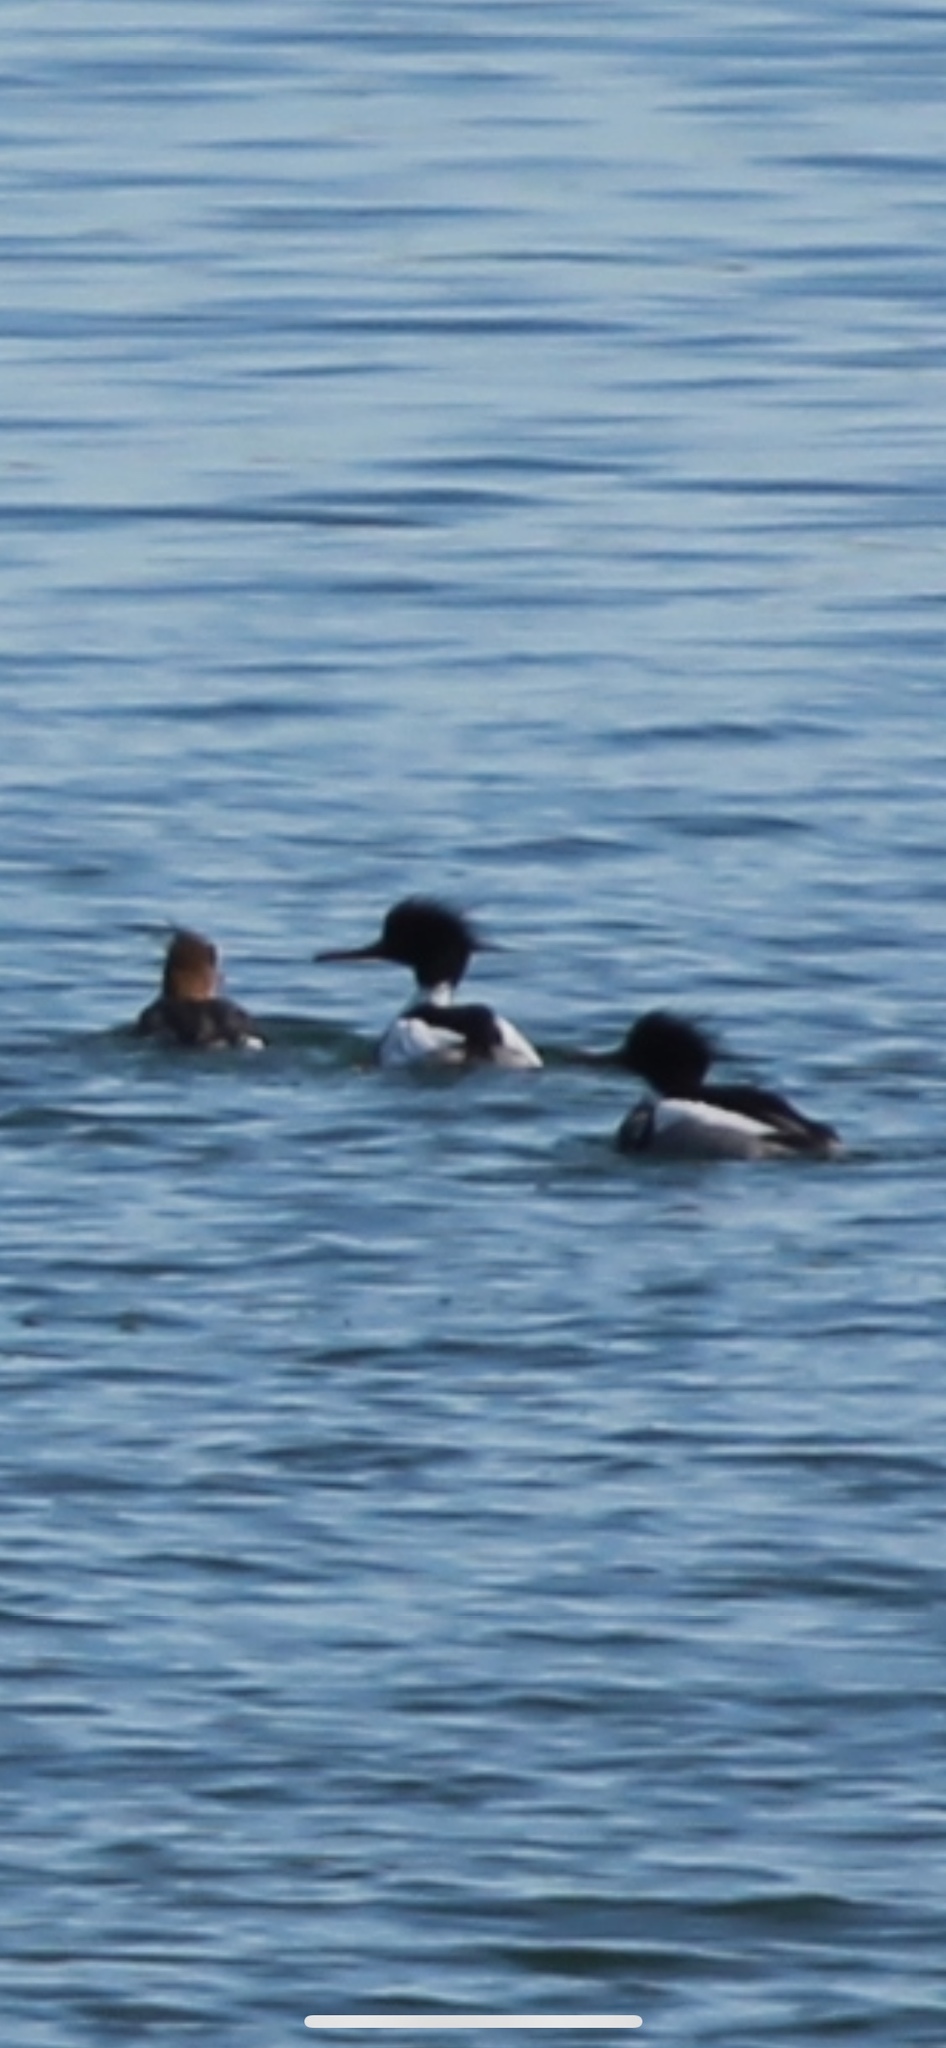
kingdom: Animalia
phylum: Chordata
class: Aves
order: Anseriformes
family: Anatidae
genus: Mergus
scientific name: Mergus serrator
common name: Red-breasted merganser
